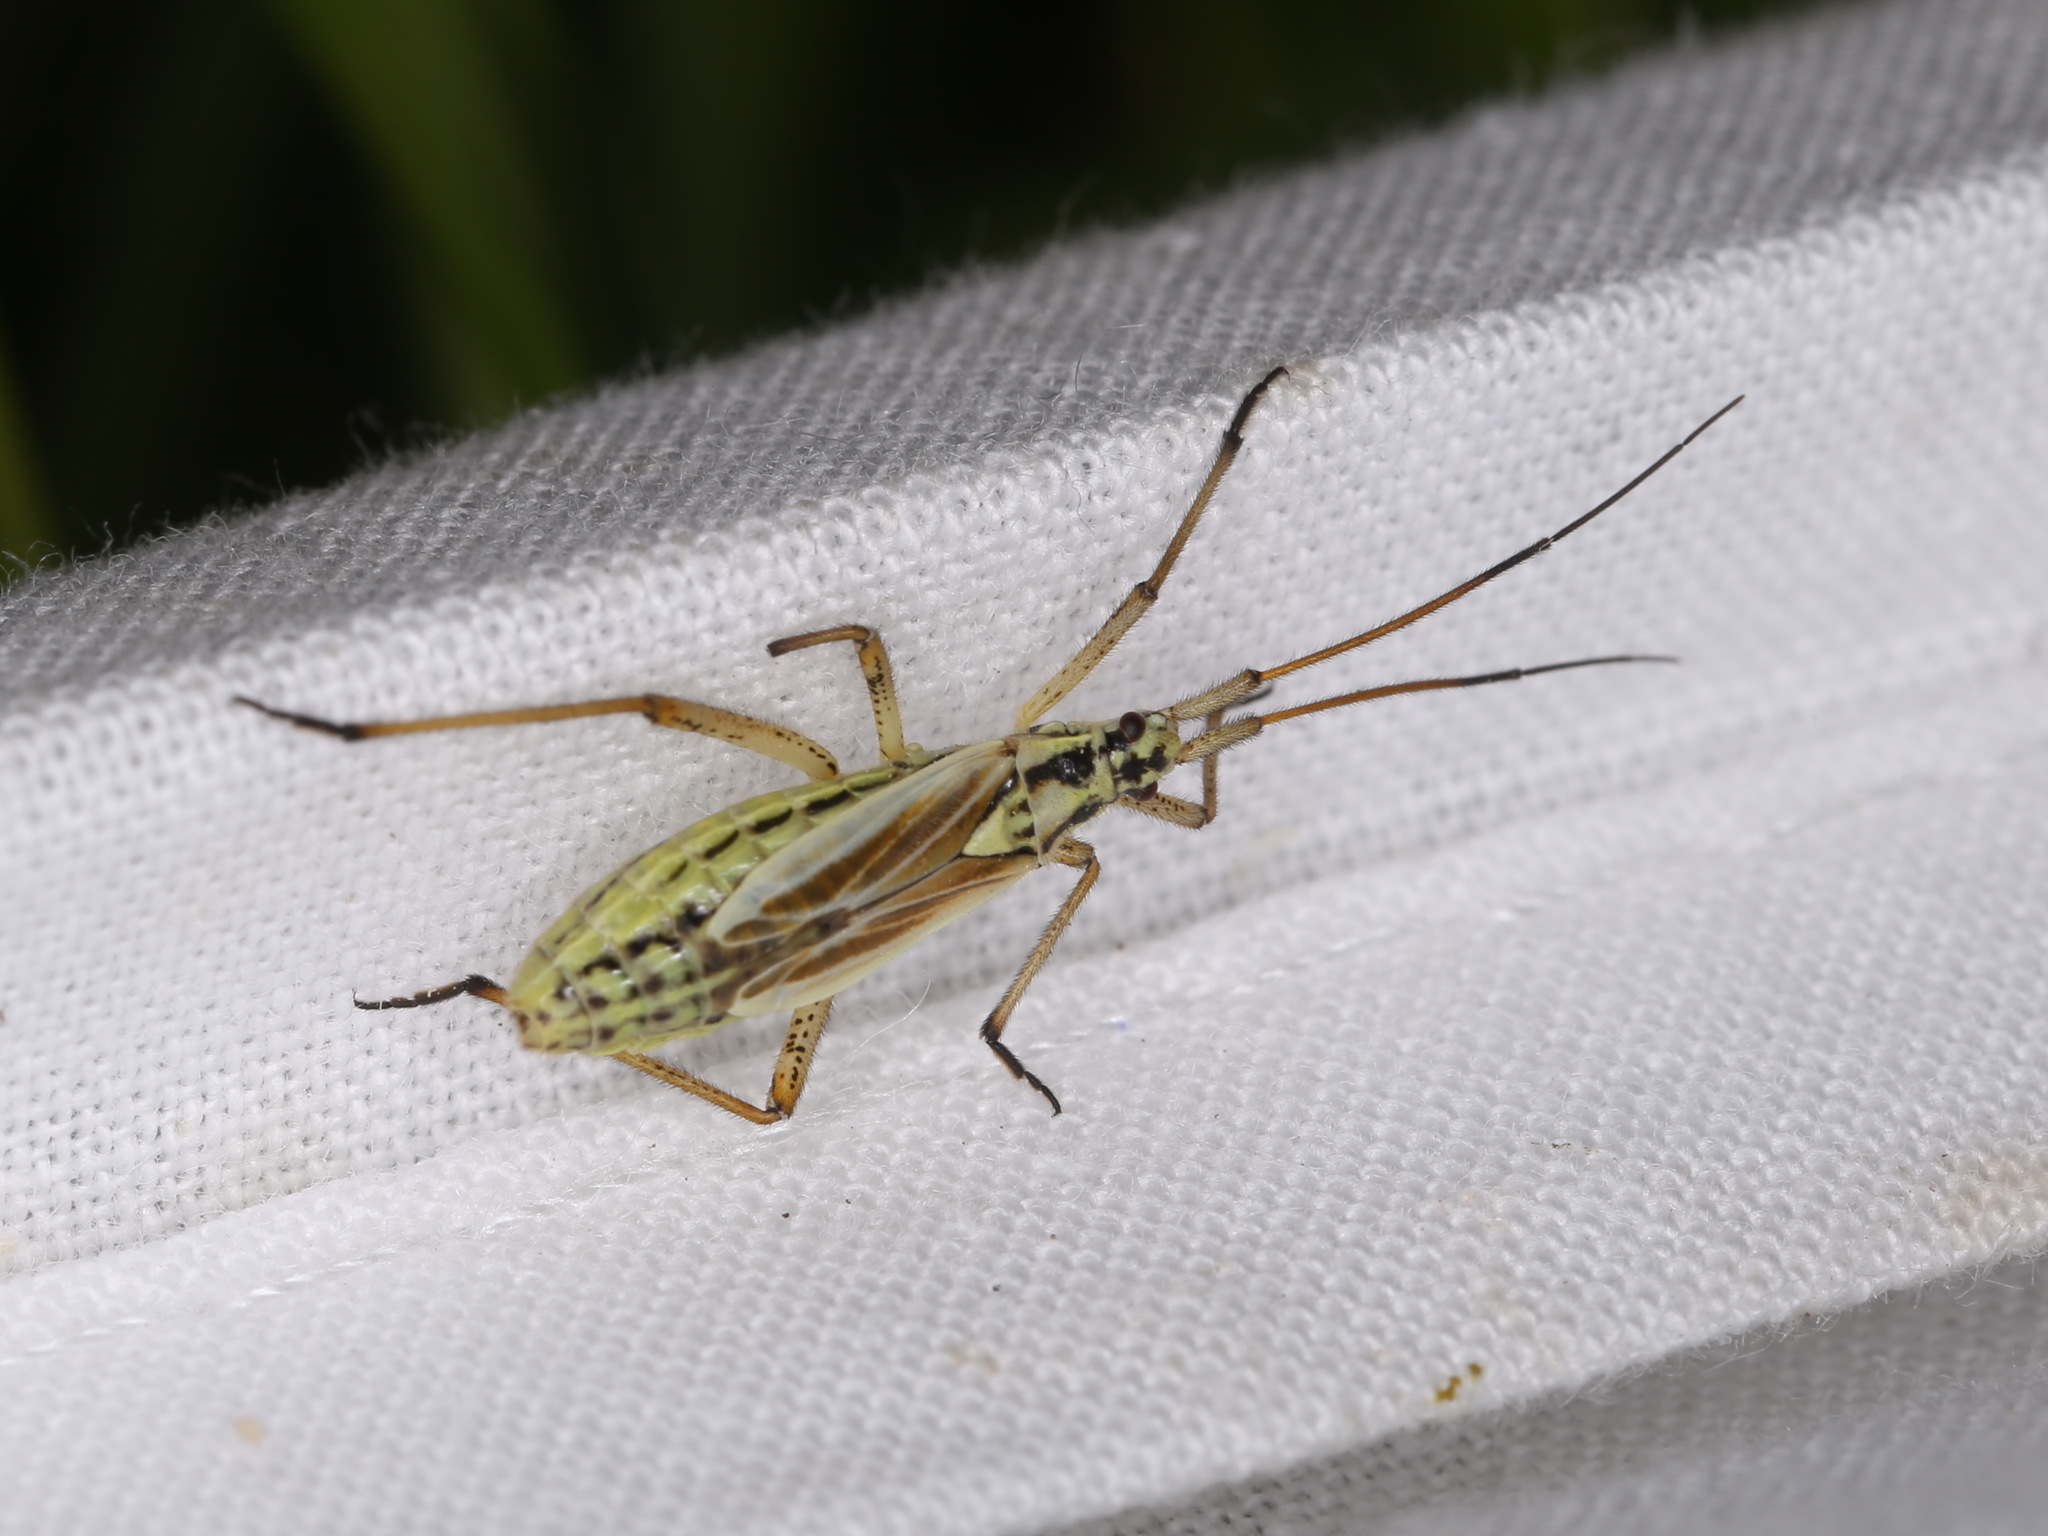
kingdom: Animalia
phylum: Arthropoda
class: Insecta
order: Hemiptera
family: Miridae
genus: Leptopterna
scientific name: Leptopterna dolabrata
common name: Meadow plant bug
